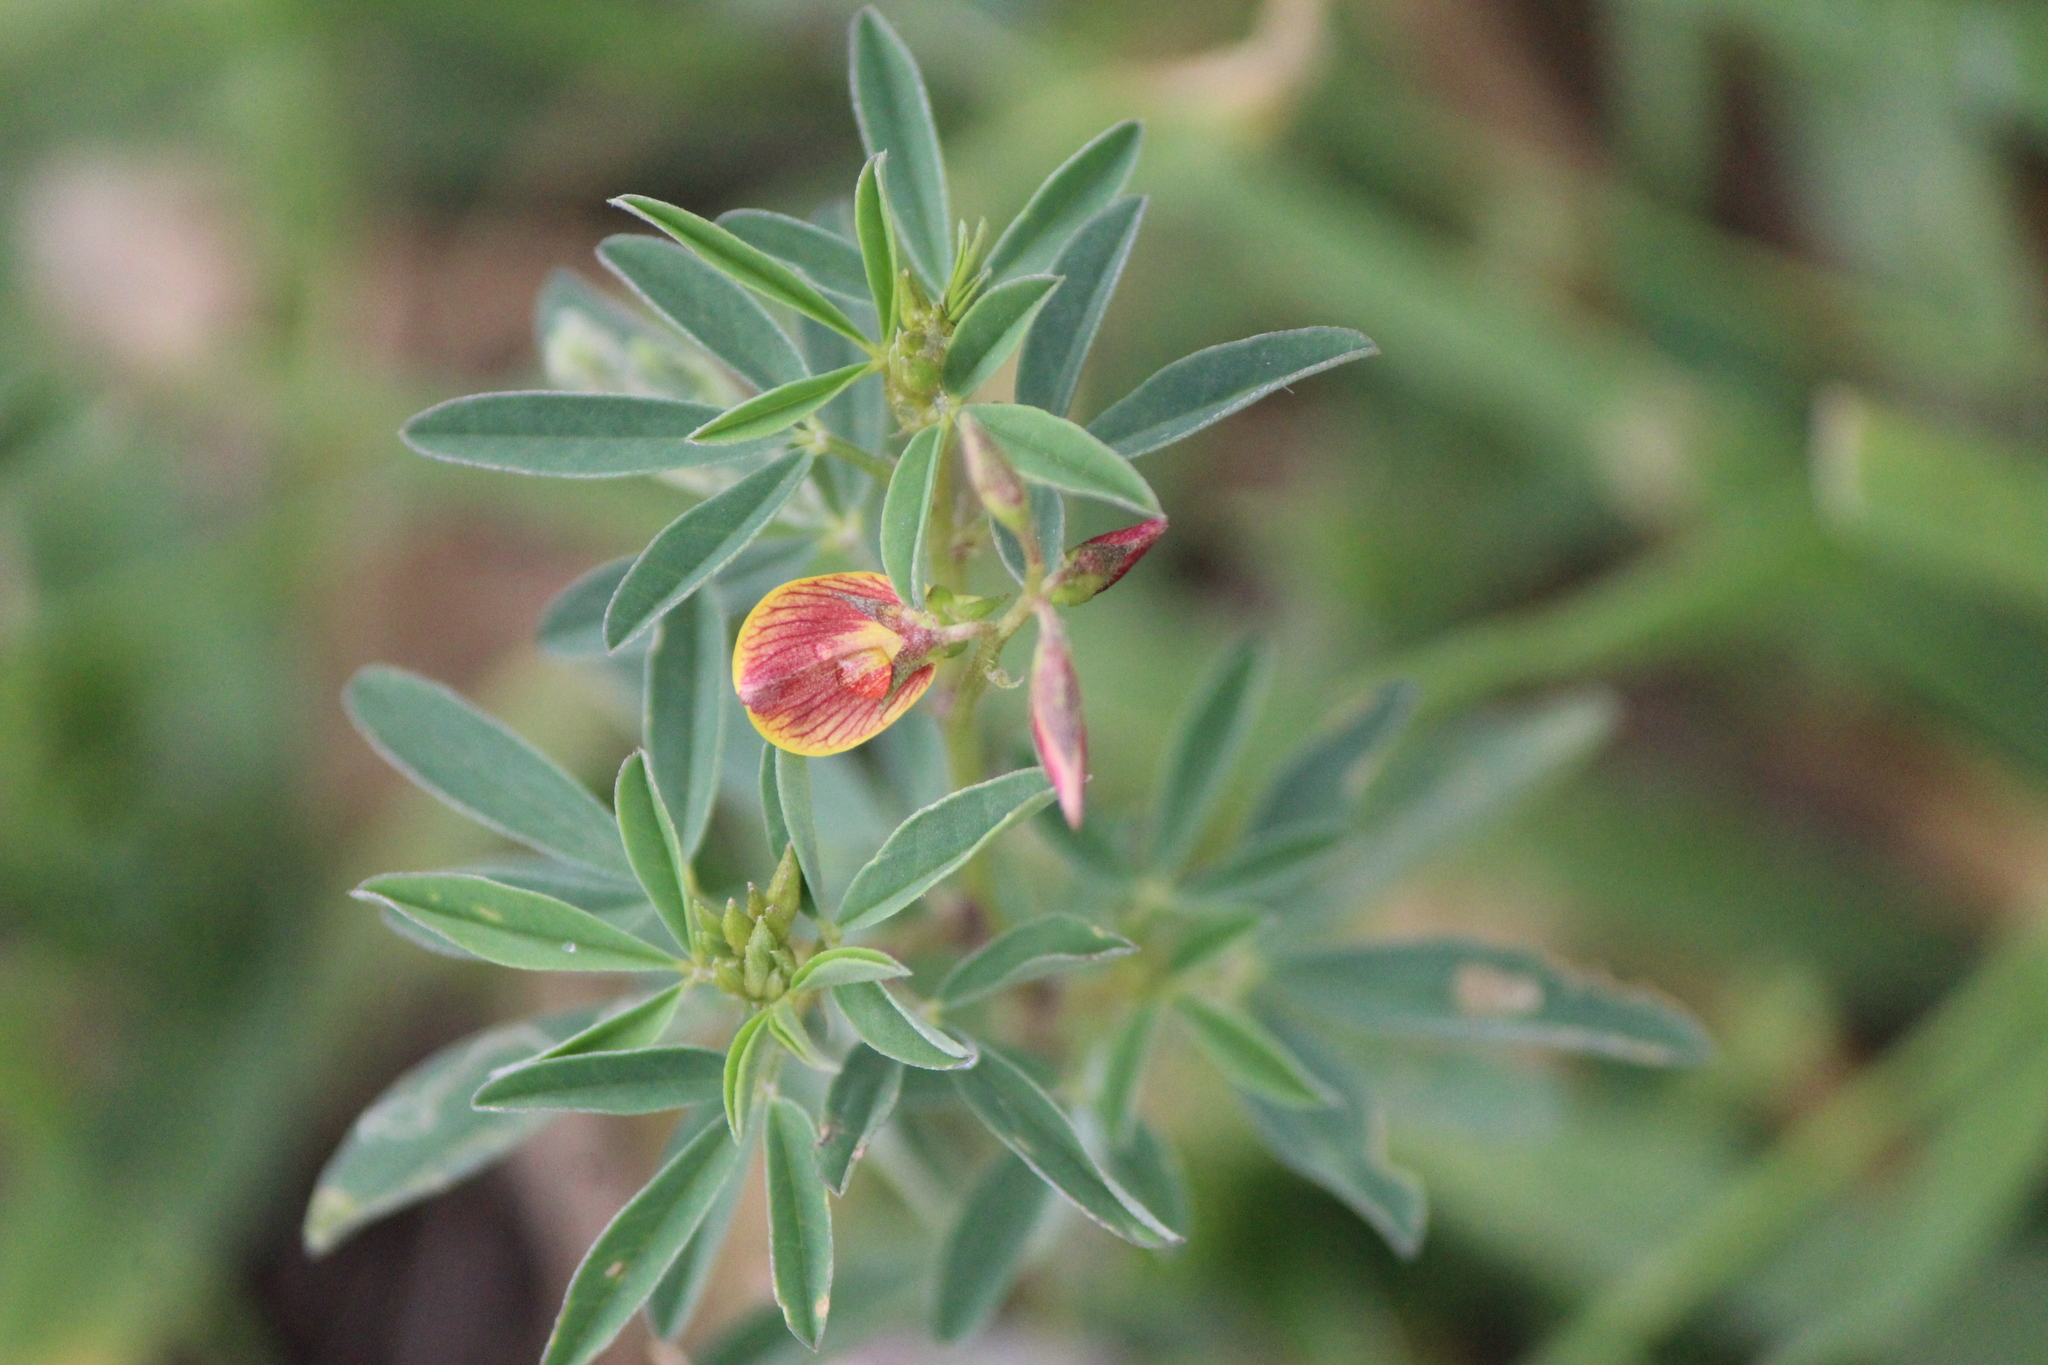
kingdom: Plantae
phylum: Tracheophyta
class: Magnoliopsida
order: Fabales
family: Fabaceae
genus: Crotalaria
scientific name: Crotalaria pumila
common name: Low rattlebox
